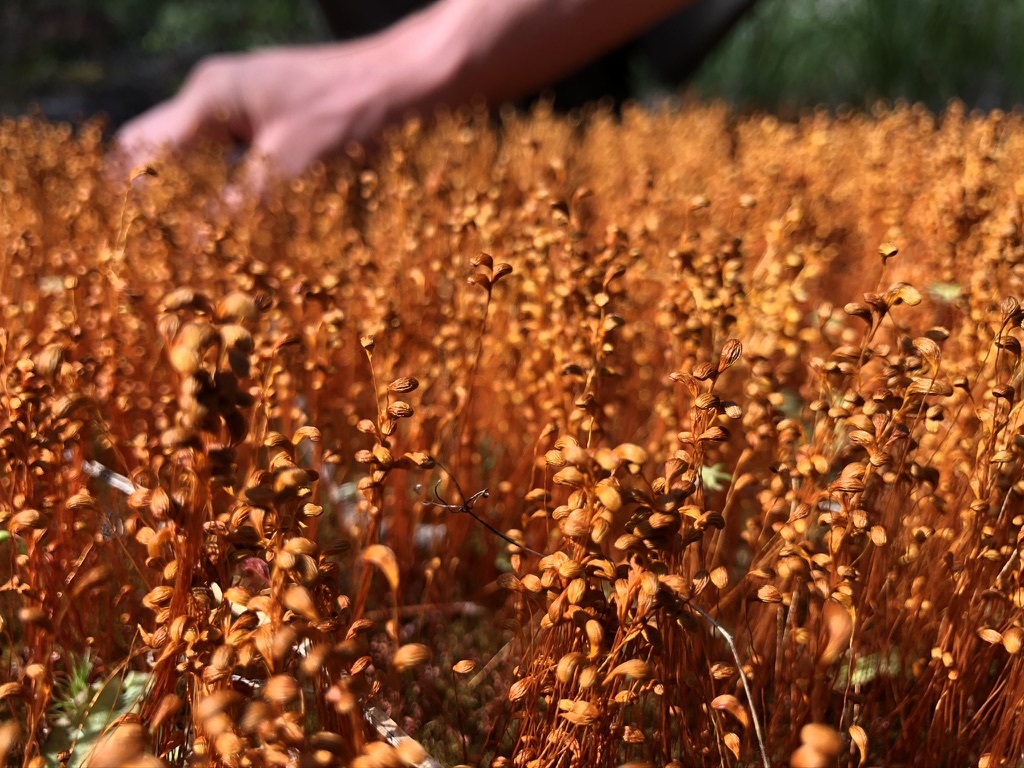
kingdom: Plantae
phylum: Bryophyta
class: Bryopsida
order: Funariales
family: Funariaceae
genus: Funaria
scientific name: Funaria hygrometrica
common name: Common cord moss
